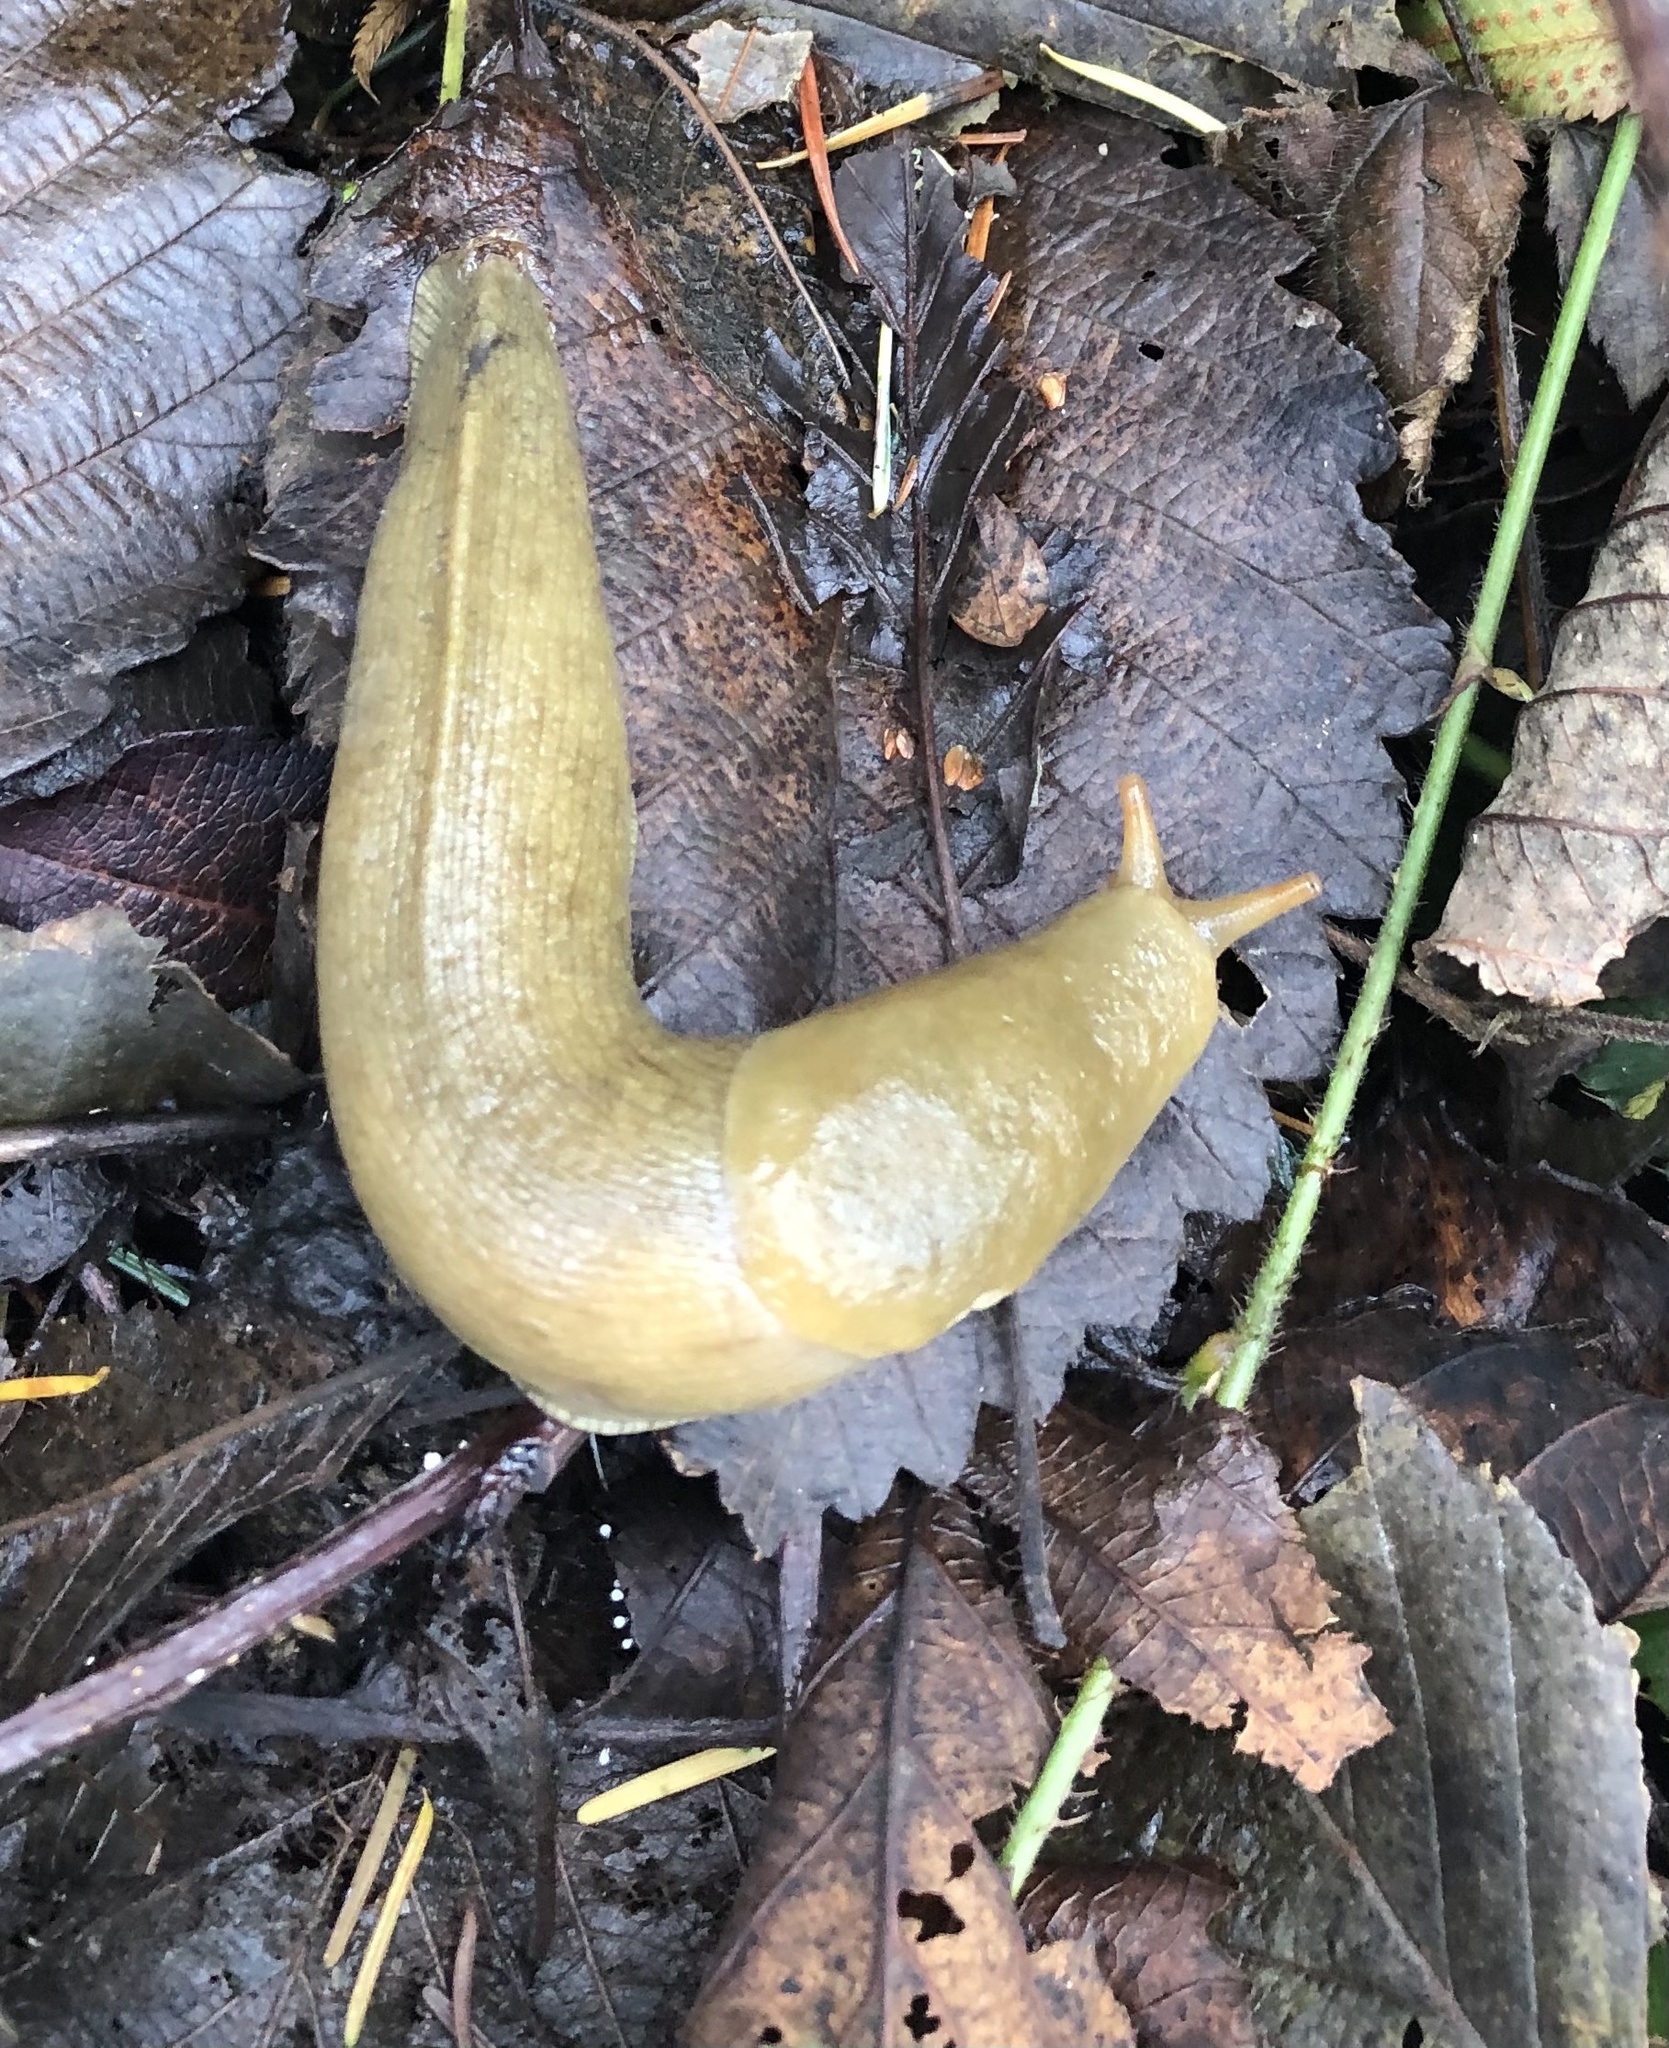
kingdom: Animalia
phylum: Mollusca
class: Gastropoda
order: Stylommatophora
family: Ariolimacidae
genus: Ariolimax
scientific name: Ariolimax columbianus
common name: Pacific banana slug
